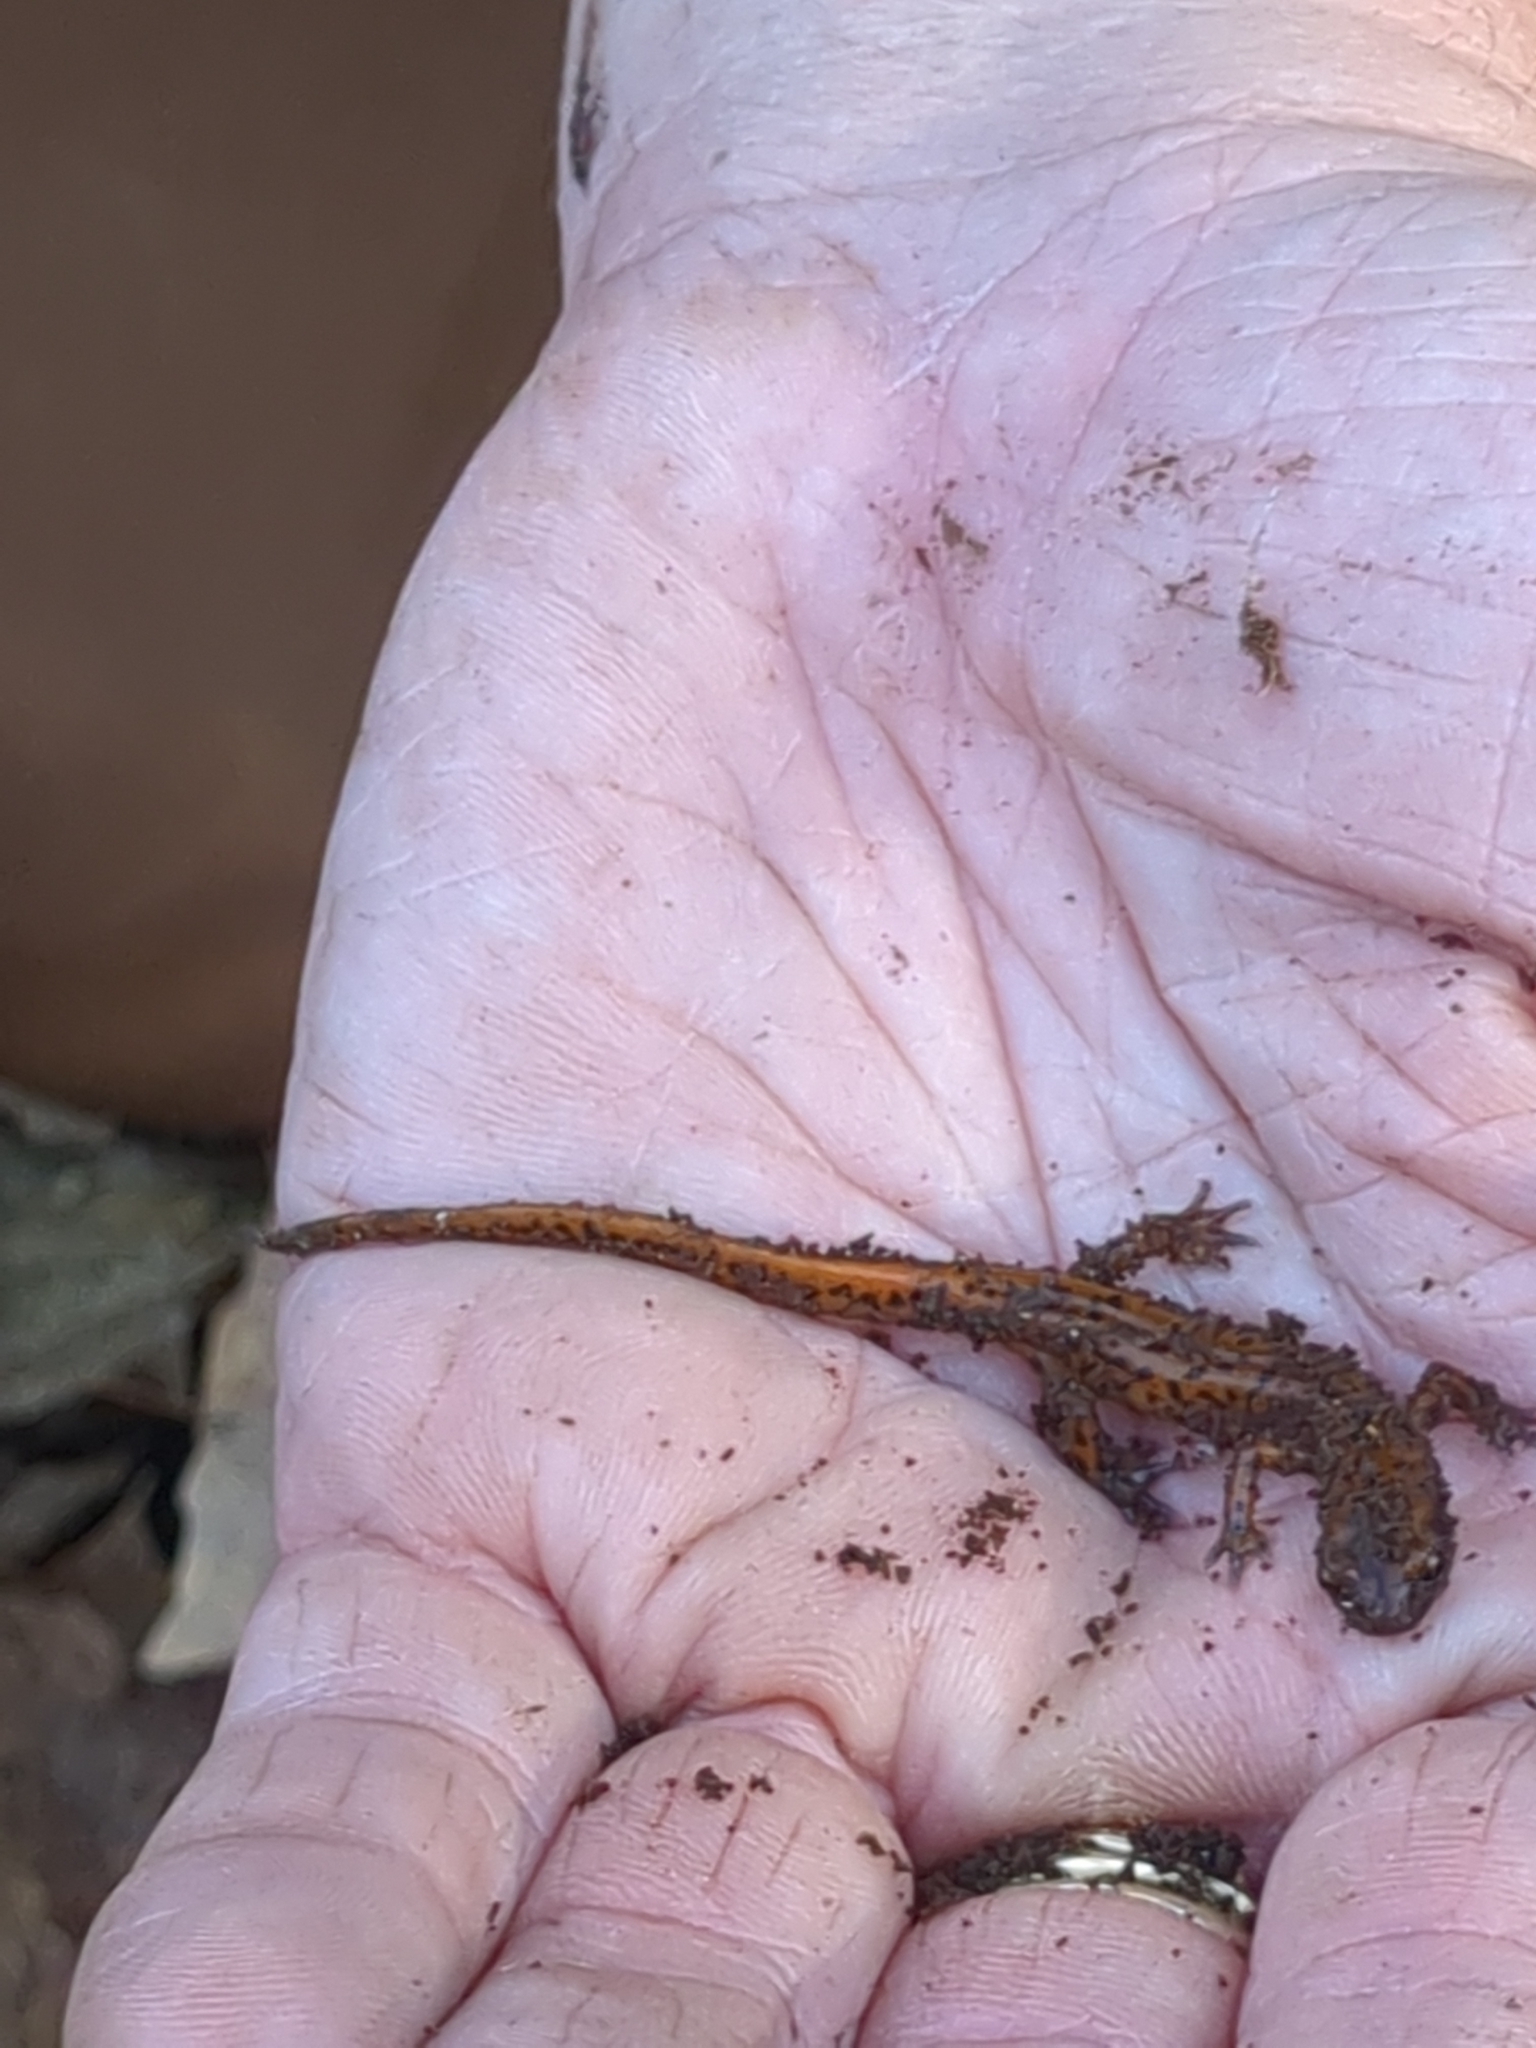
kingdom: Animalia
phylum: Chordata
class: Amphibia
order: Caudata
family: Plethodontidae
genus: Eurycea
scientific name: Eurycea lucifuga
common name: Cave salamander
